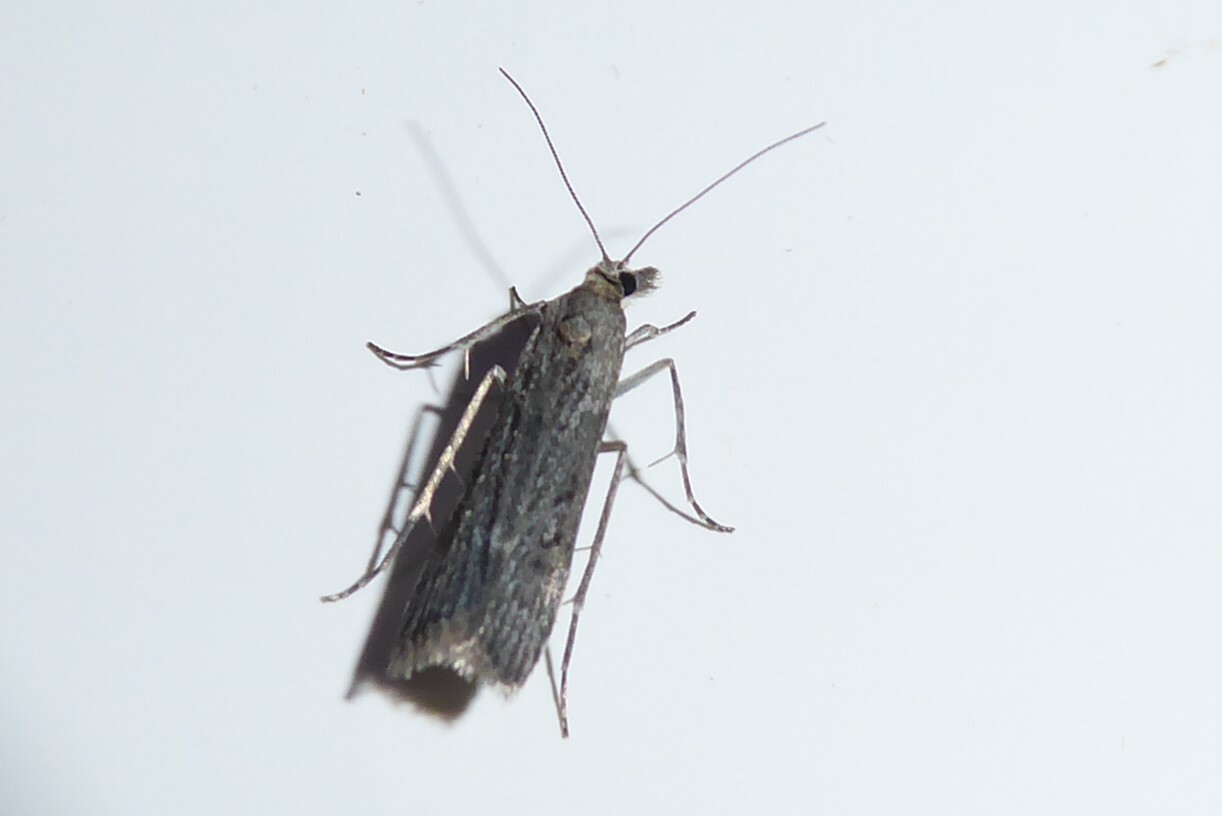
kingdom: Animalia
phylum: Arthropoda
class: Insecta
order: Lepidoptera
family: Crambidae
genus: Eudonia
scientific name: Eudonia atmogramma
